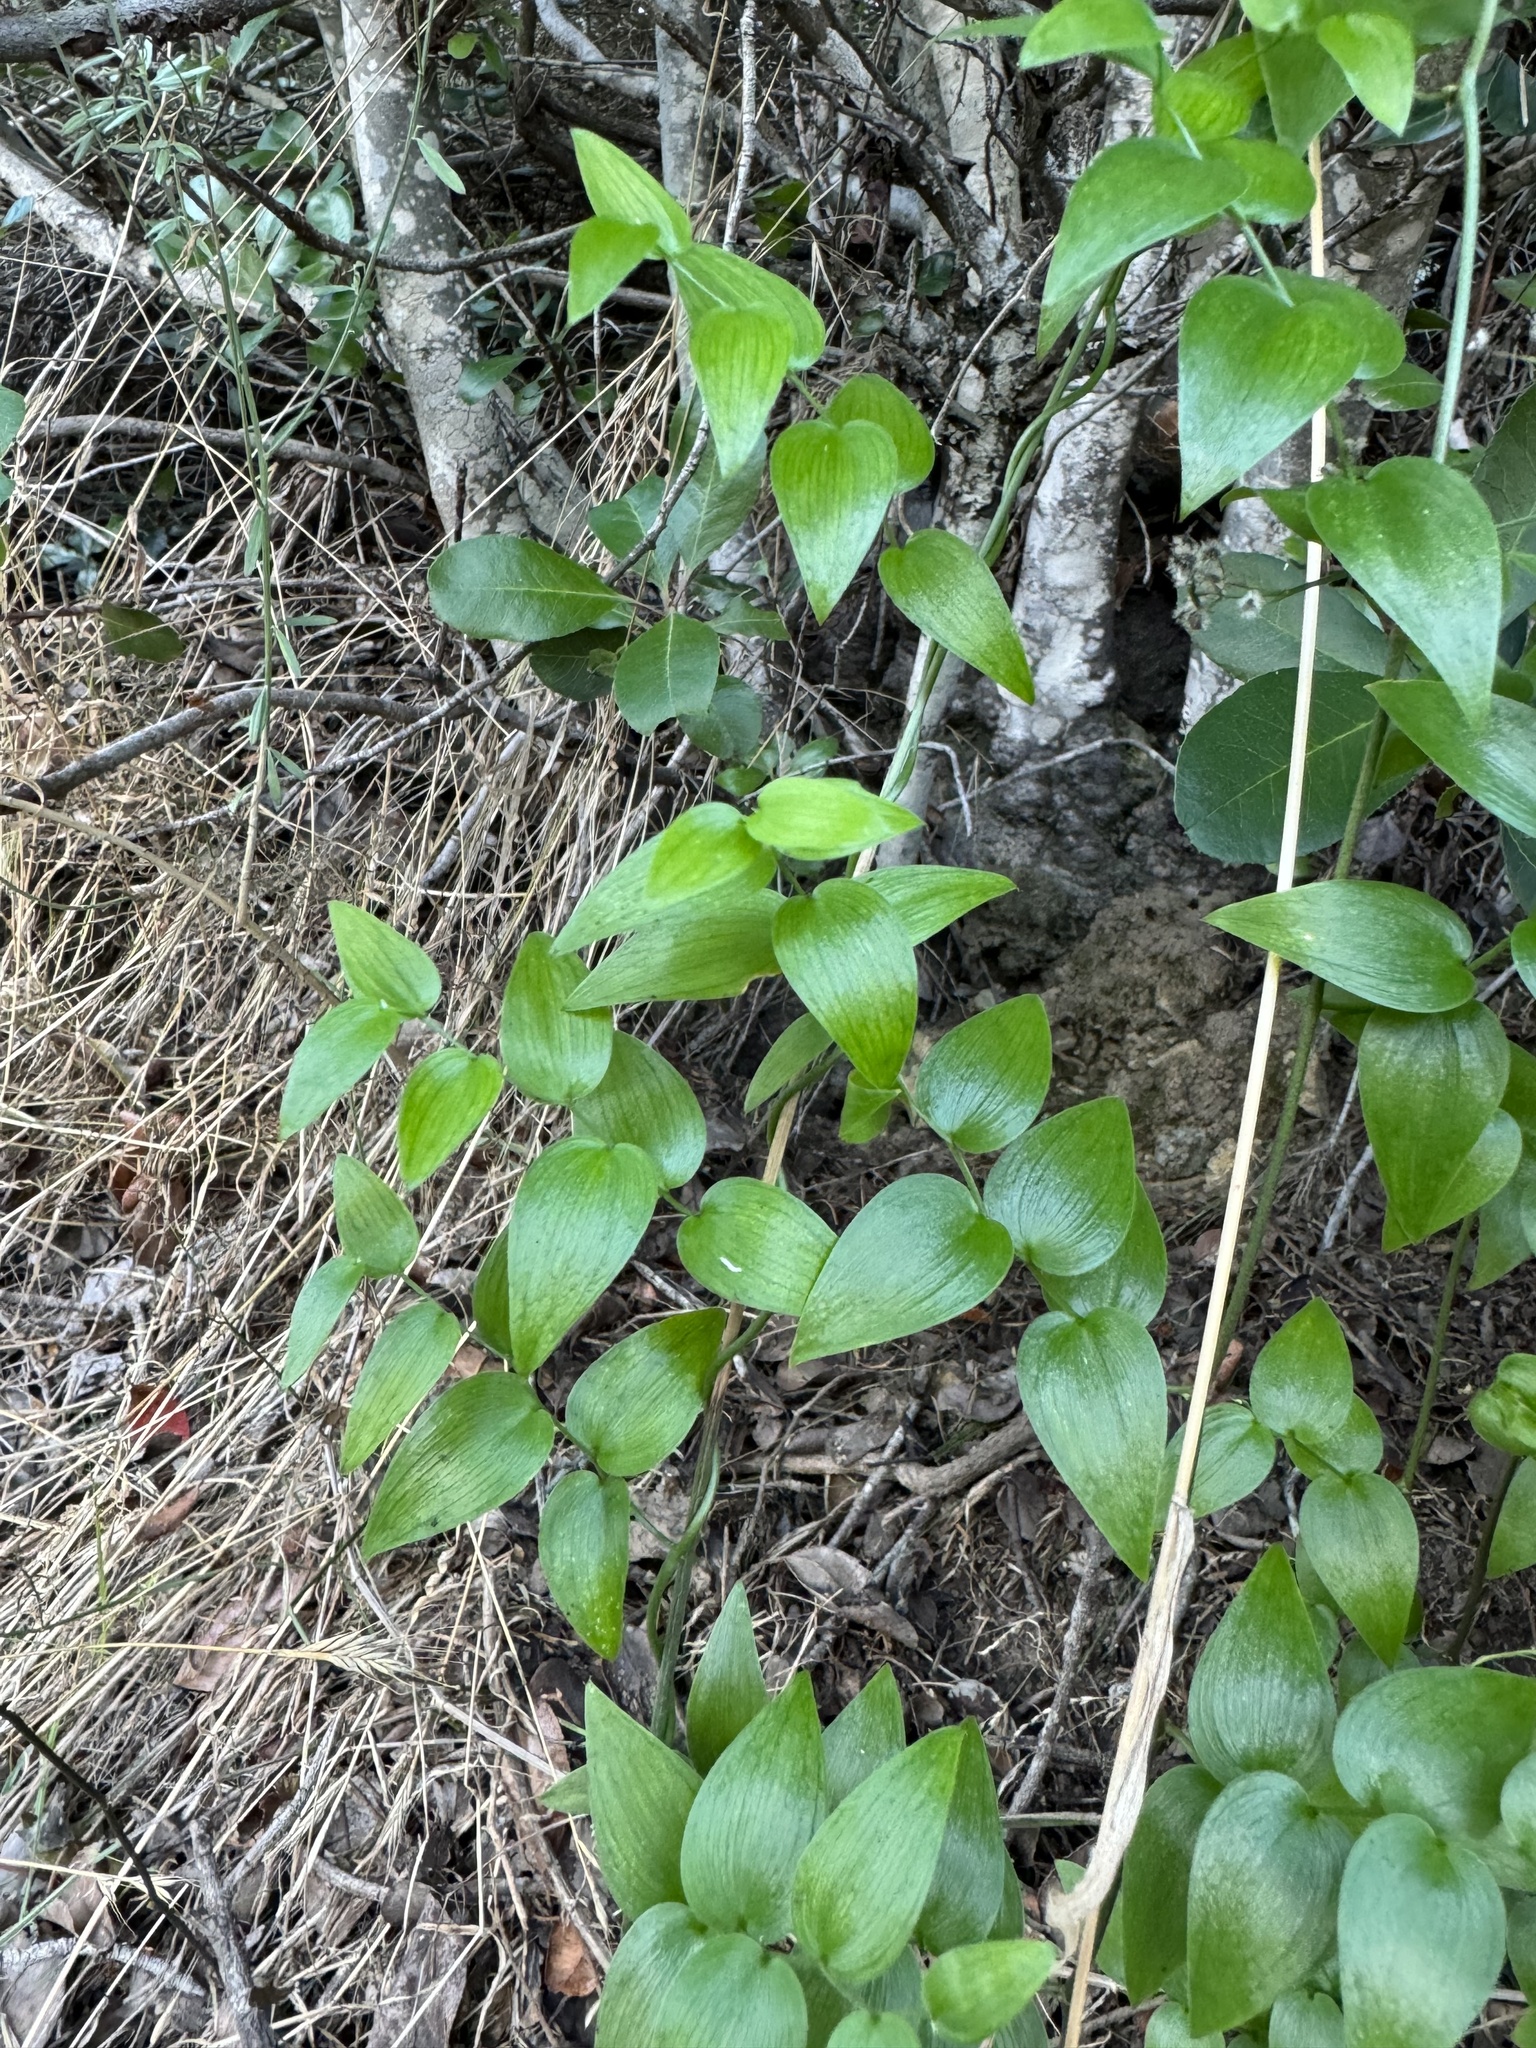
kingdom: Plantae
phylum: Tracheophyta
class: Liliopsida
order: Asparagales
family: Asparagaceae
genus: Asparagus
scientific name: Asparagus asparagoides
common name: African asparagus fern
